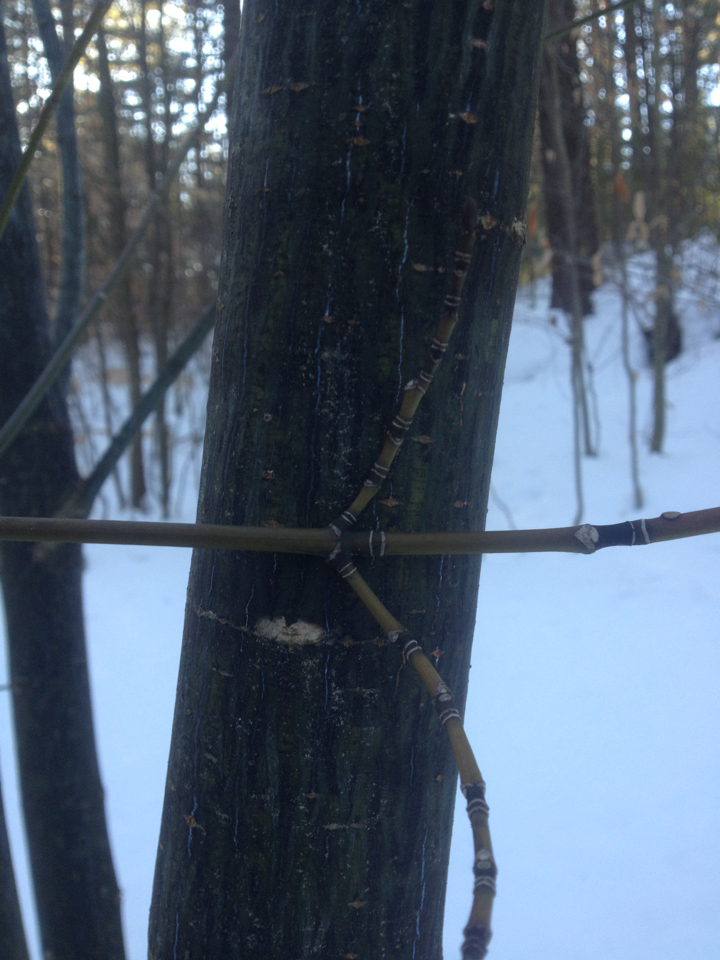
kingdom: Plantae
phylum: Tracheophyta
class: Magnoliopsida
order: Sapindales
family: Sapindaceae
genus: Acer
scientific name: Acer pensylvanicum
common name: Moosewood
